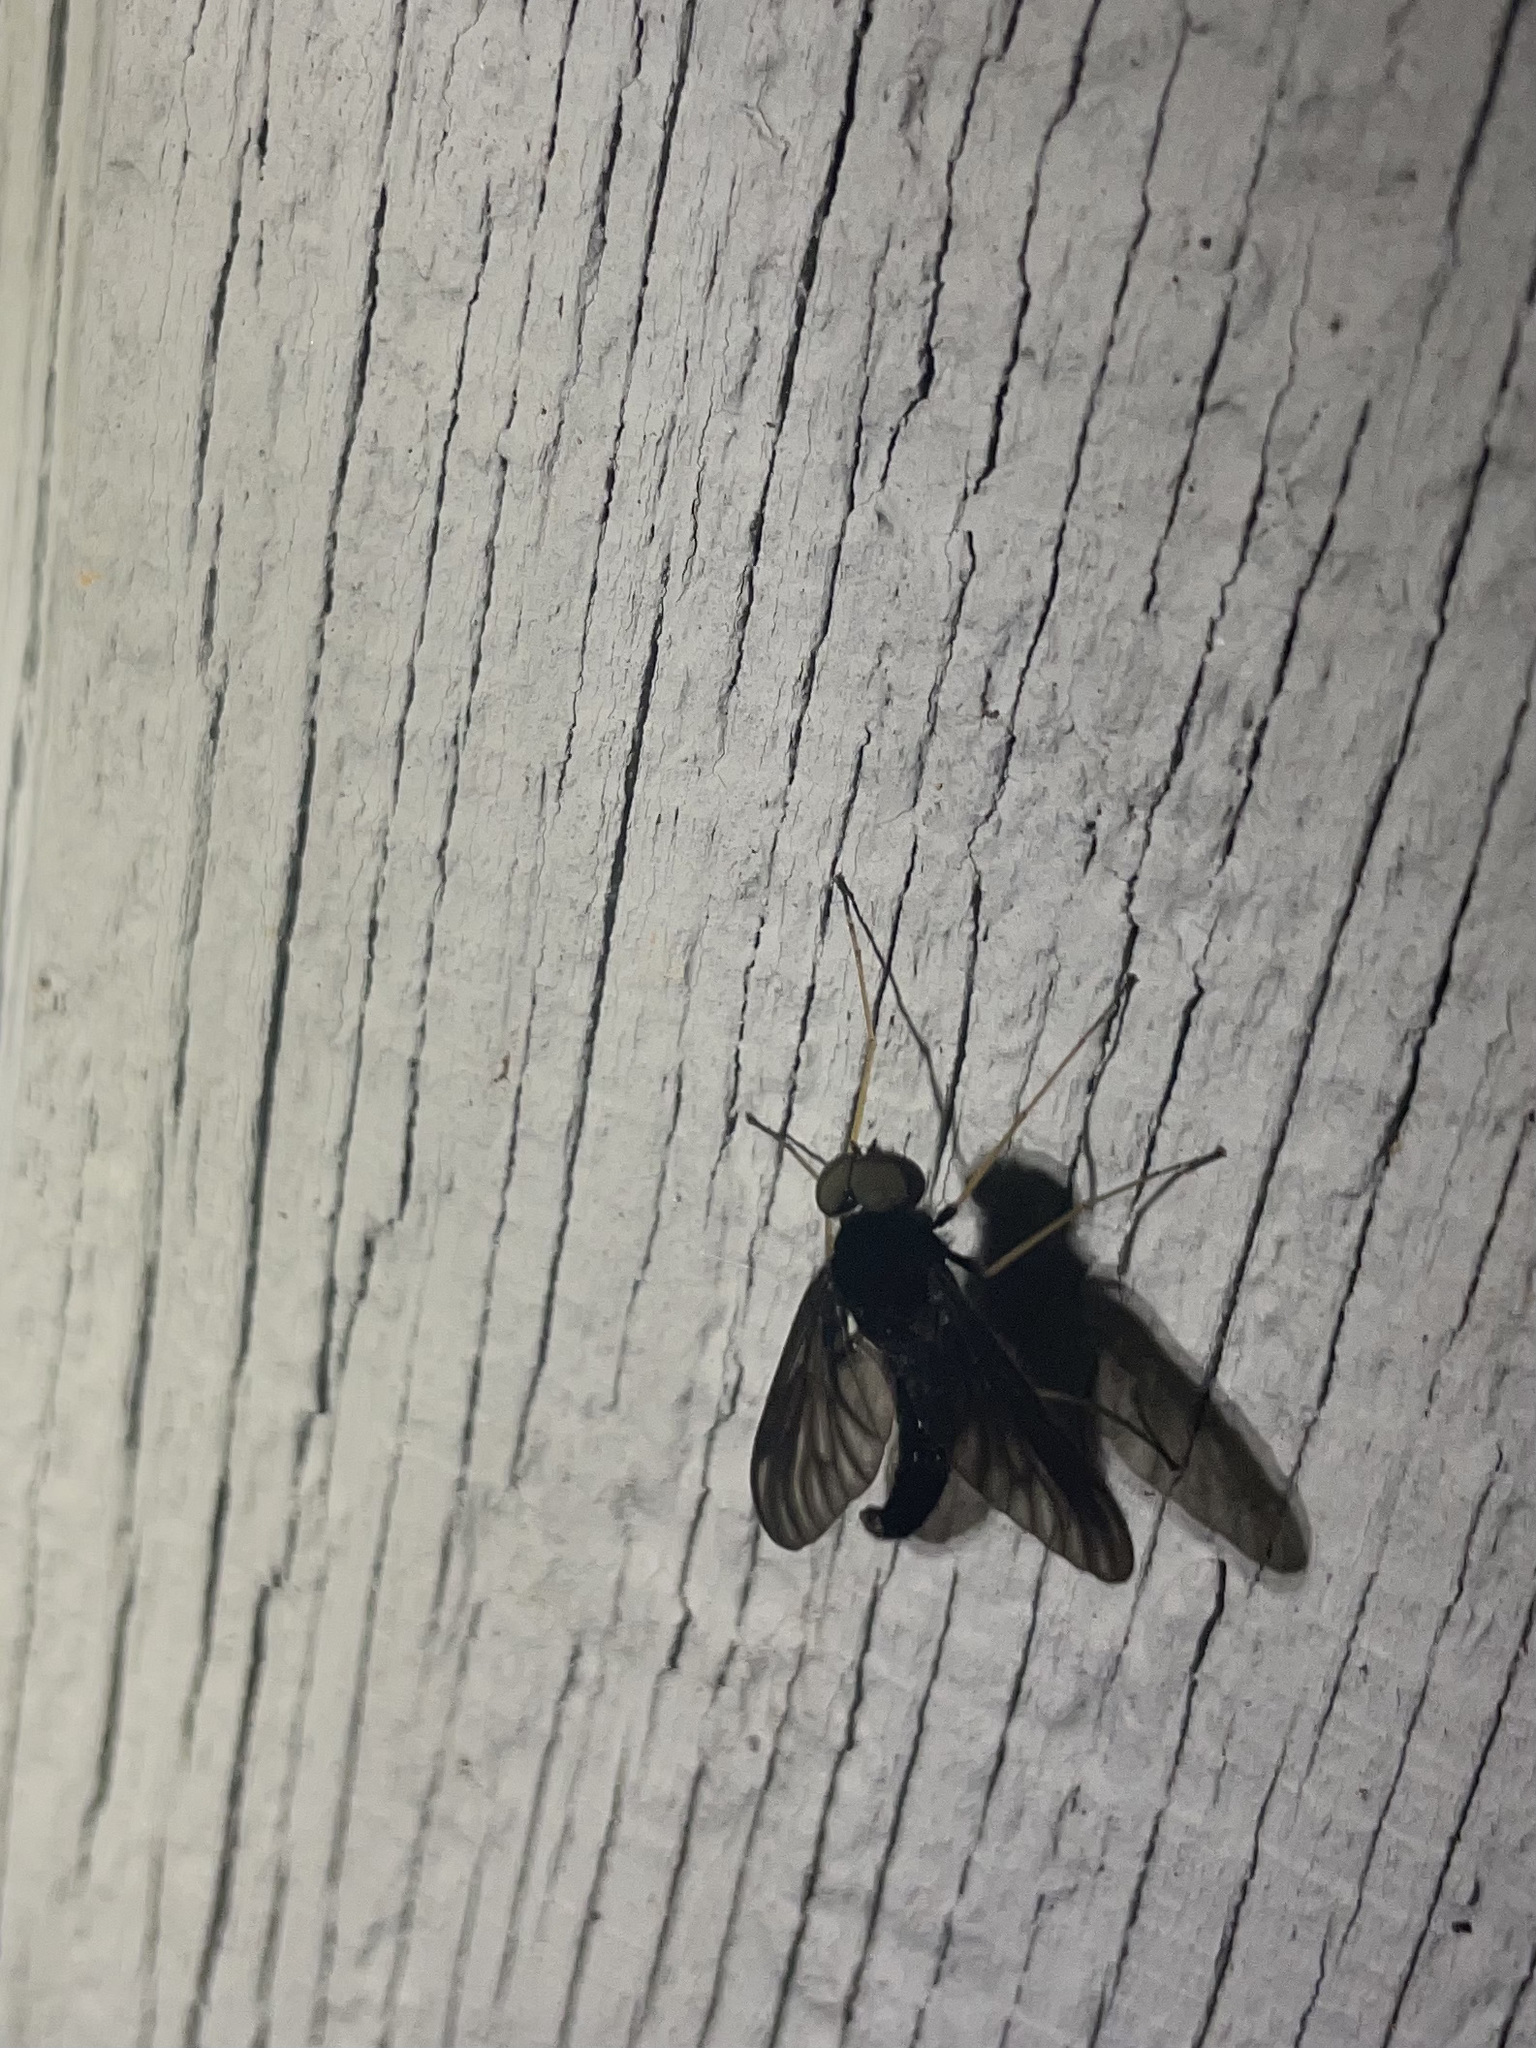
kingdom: Animalia
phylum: Arthropoda
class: Insecta
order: Diptera
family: Rhagionidae
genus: Chrysopilus
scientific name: Chrysopilus velutinus
